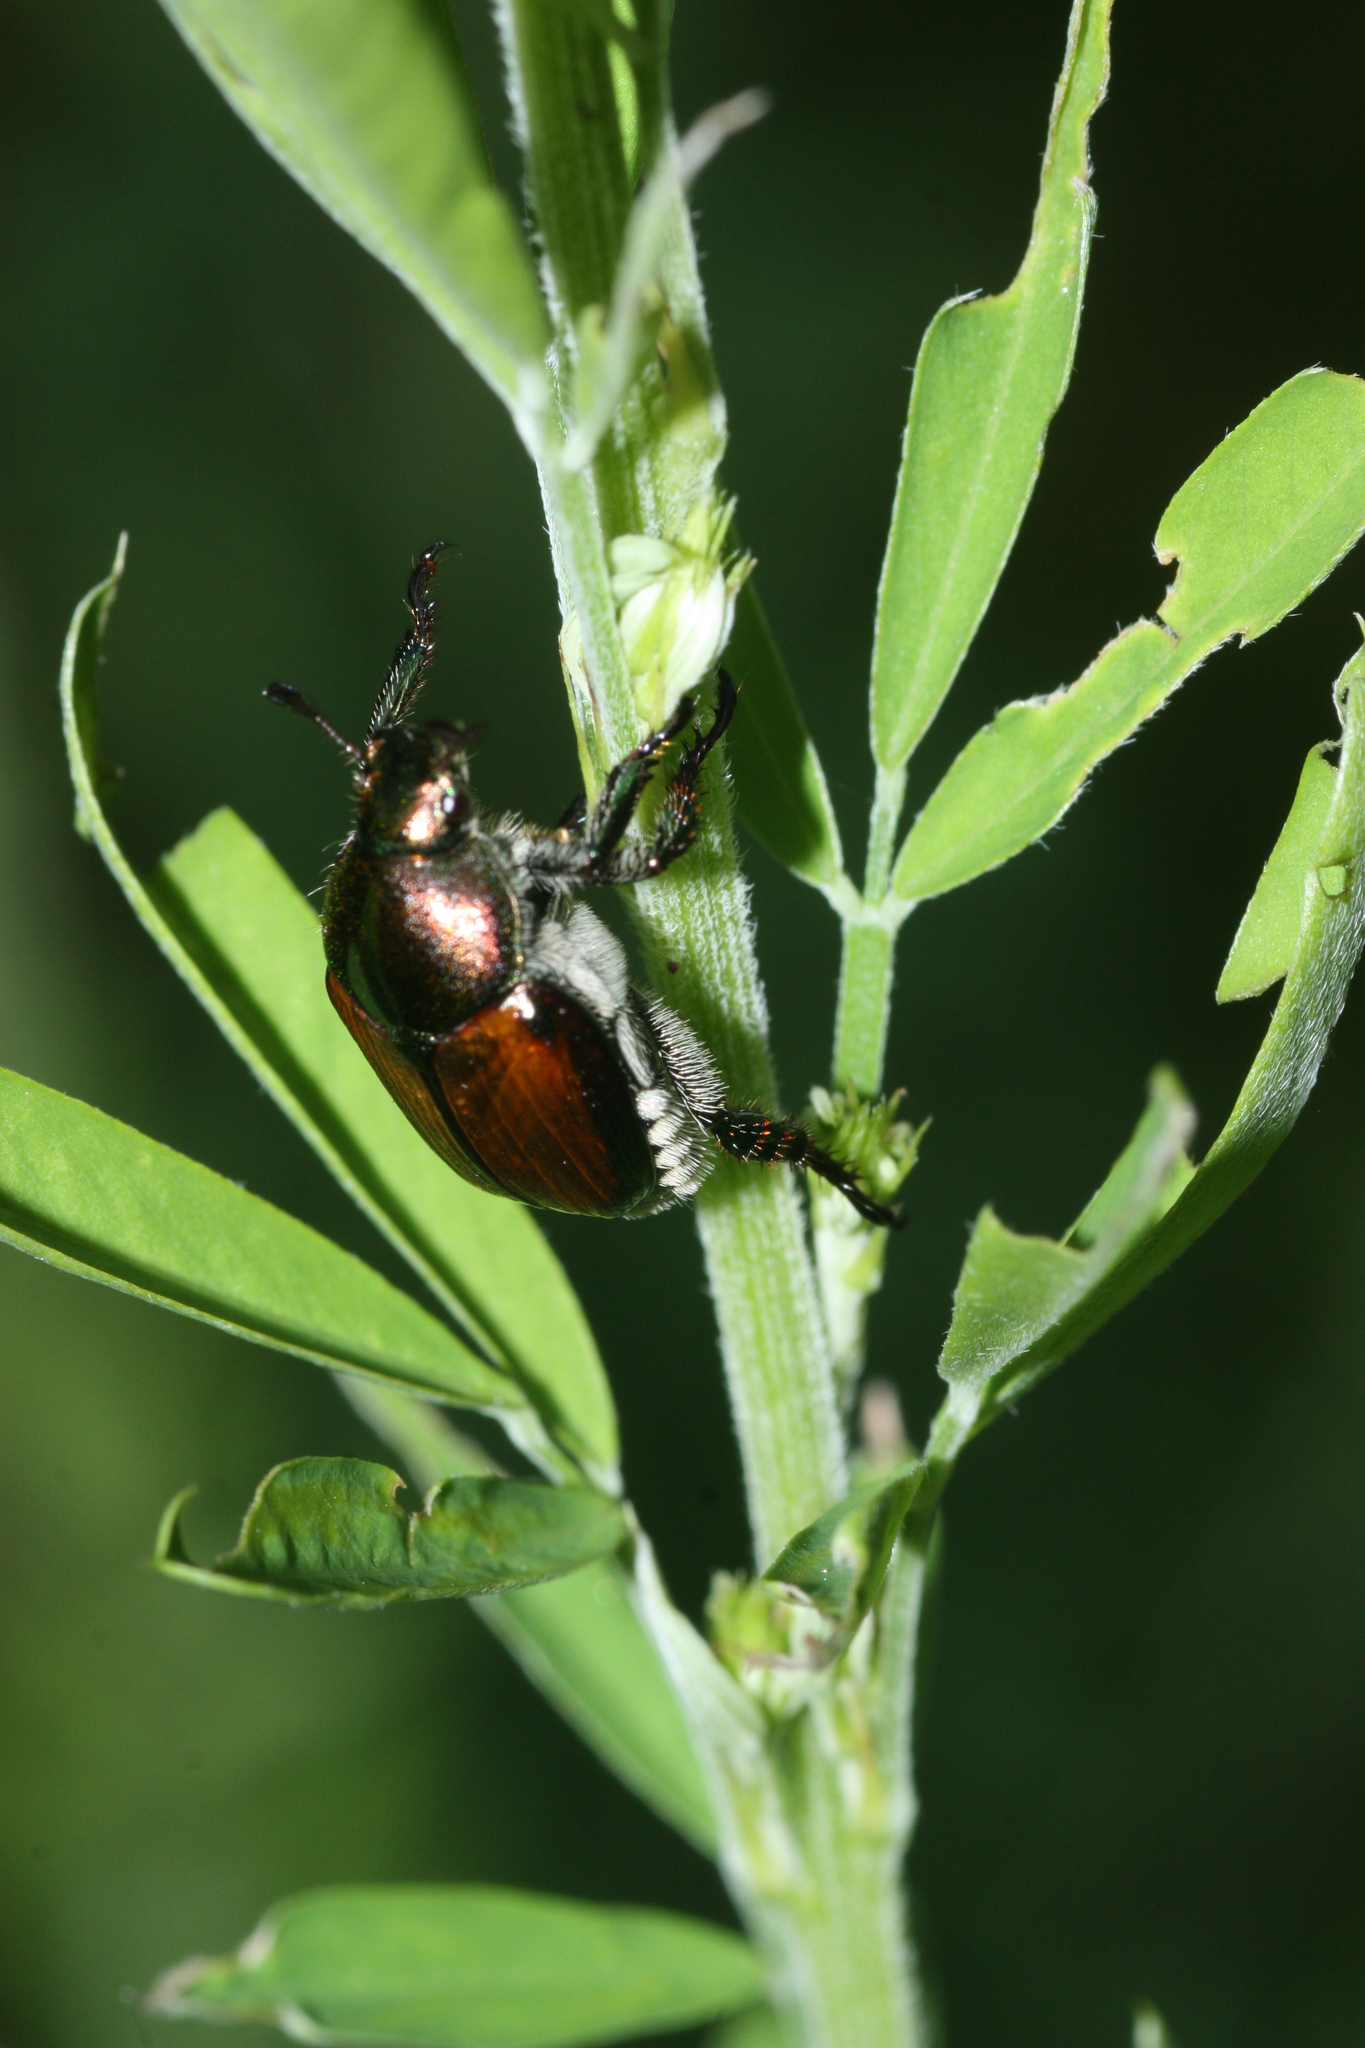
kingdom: Animalia
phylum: Arthropoda
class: Insecta
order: Coleoptera
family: Scarabaeidae
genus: Popillia
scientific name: Popillia japonica
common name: Japanese beetle
